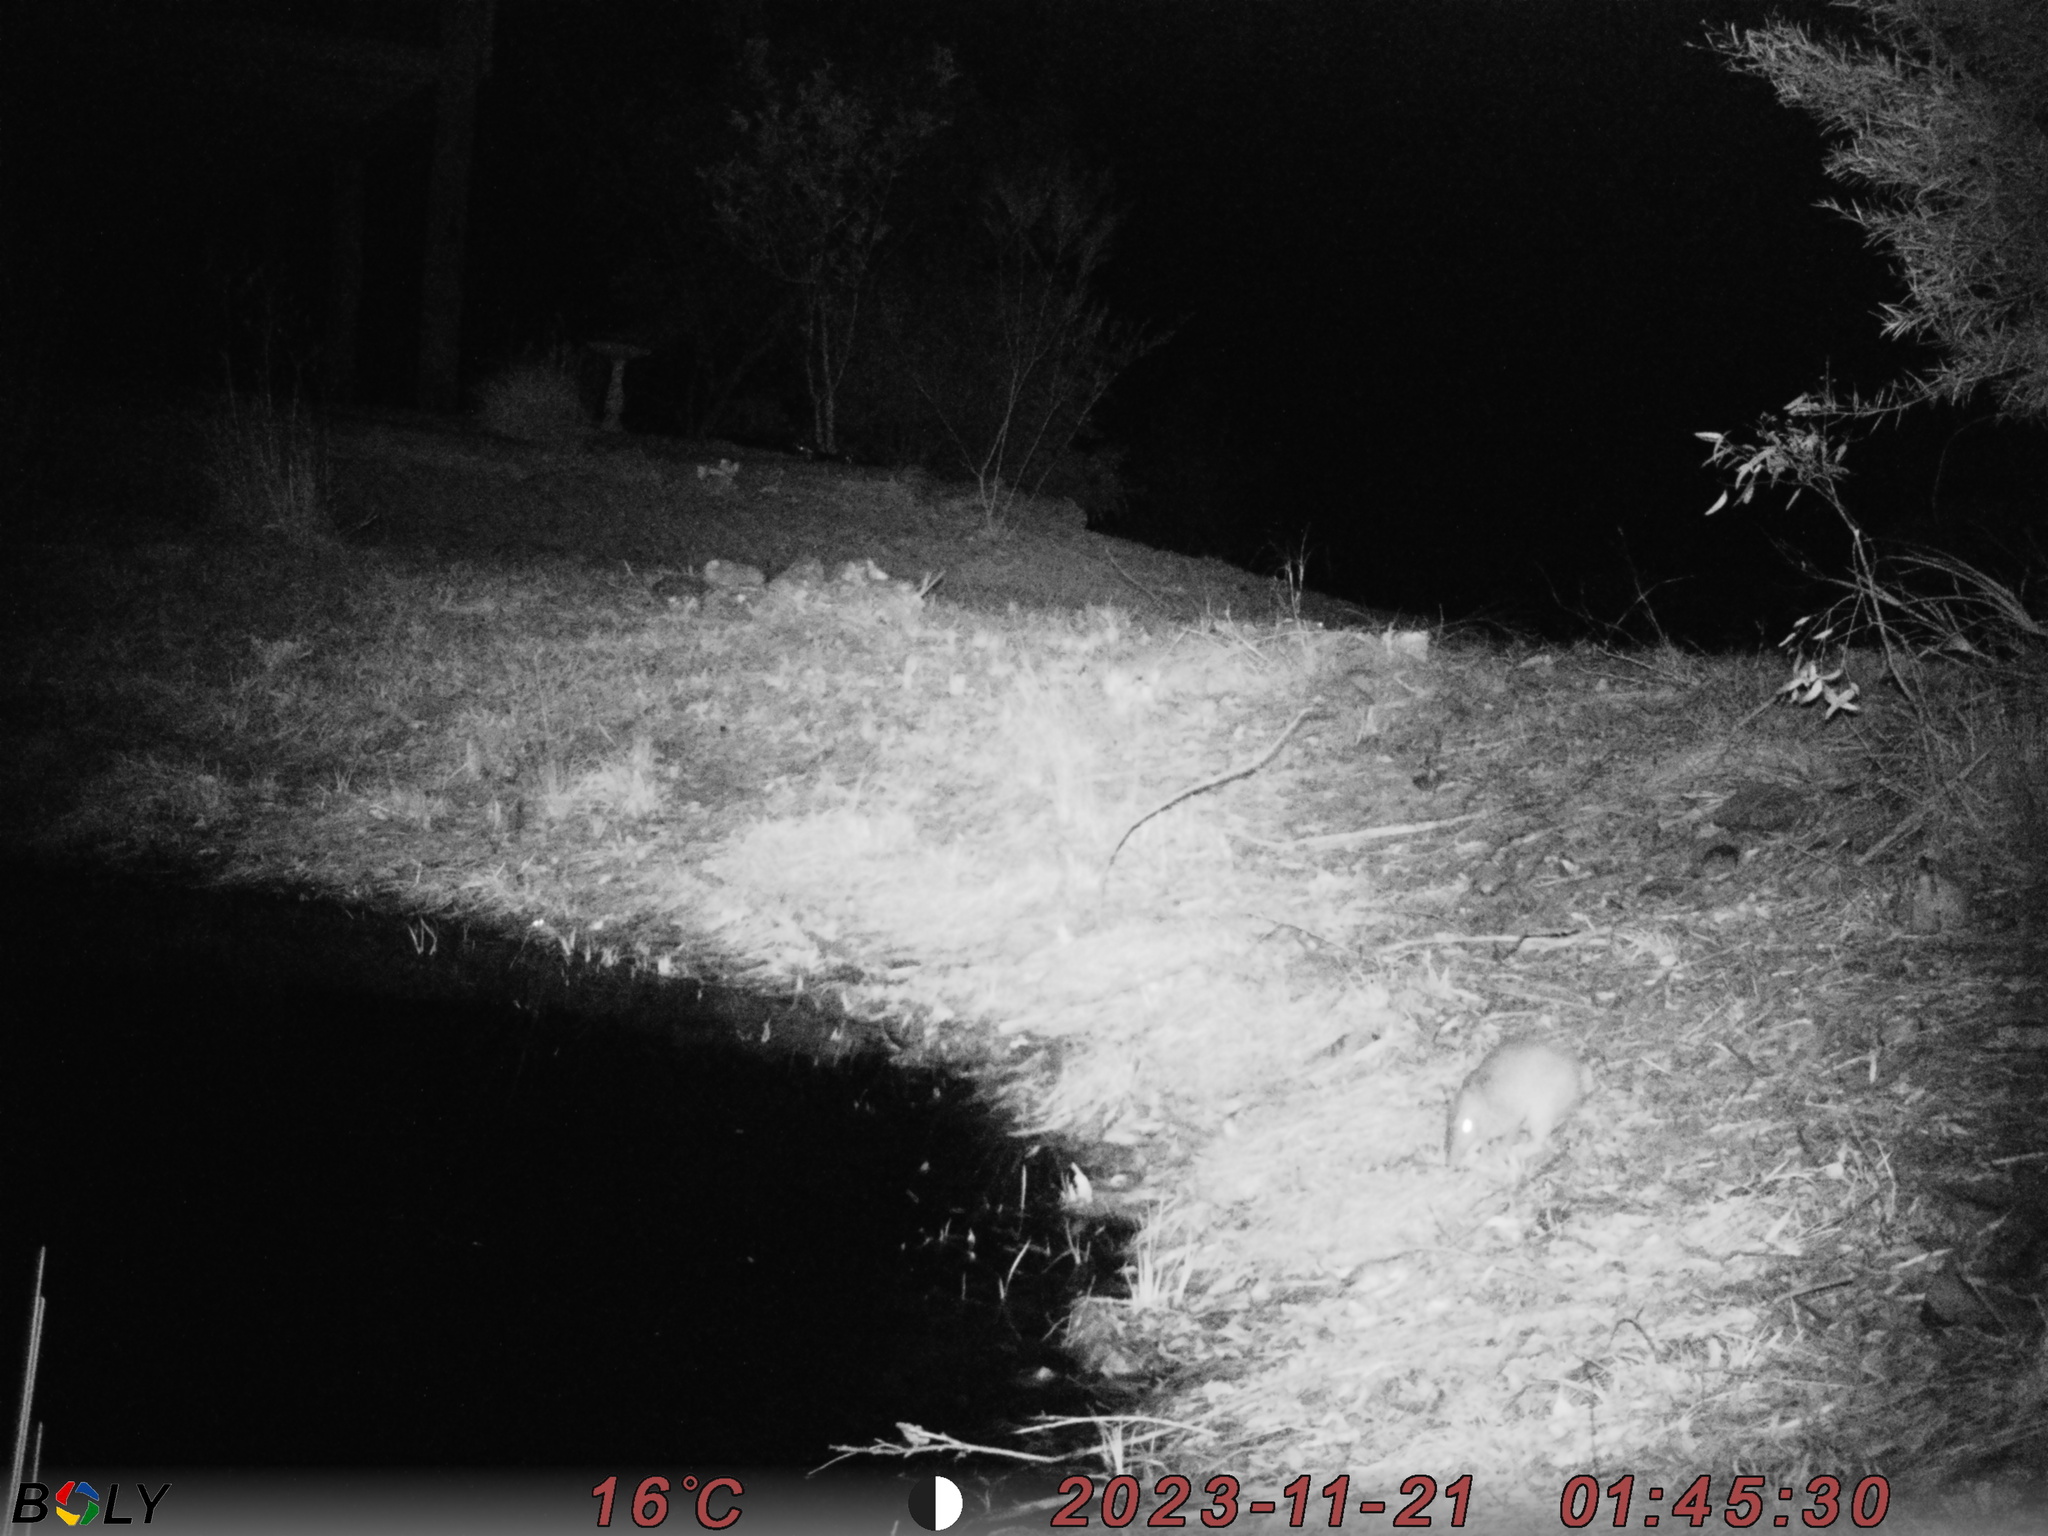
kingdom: Animalia
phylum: Chordata
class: Mammalia
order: Peramelemorphia
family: Peramelidae
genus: Perameles
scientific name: Perameles nasuta
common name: Long-nosed bandicoot
